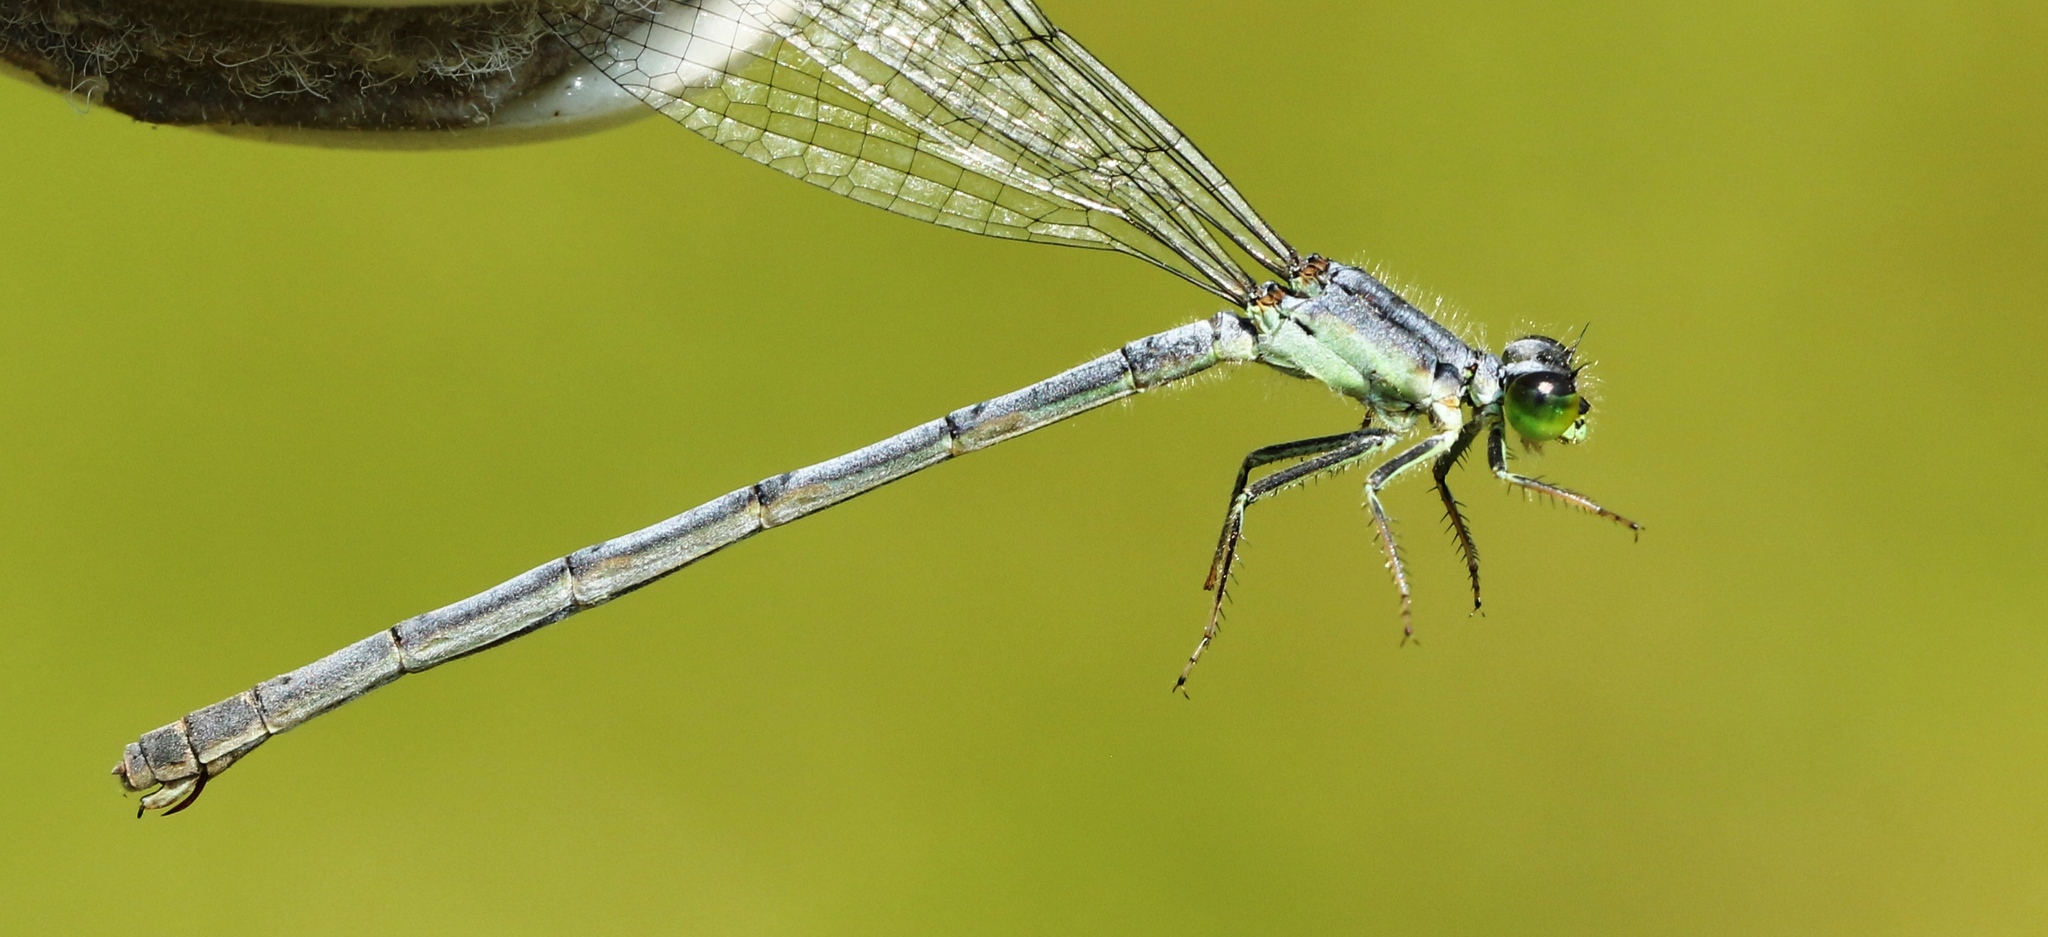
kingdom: Animalia
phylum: Arthropoda
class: Insecta
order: Odonata
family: Coenagrionidae
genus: Ischnura
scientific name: Ischnura verticalis
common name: Eastern forktail
